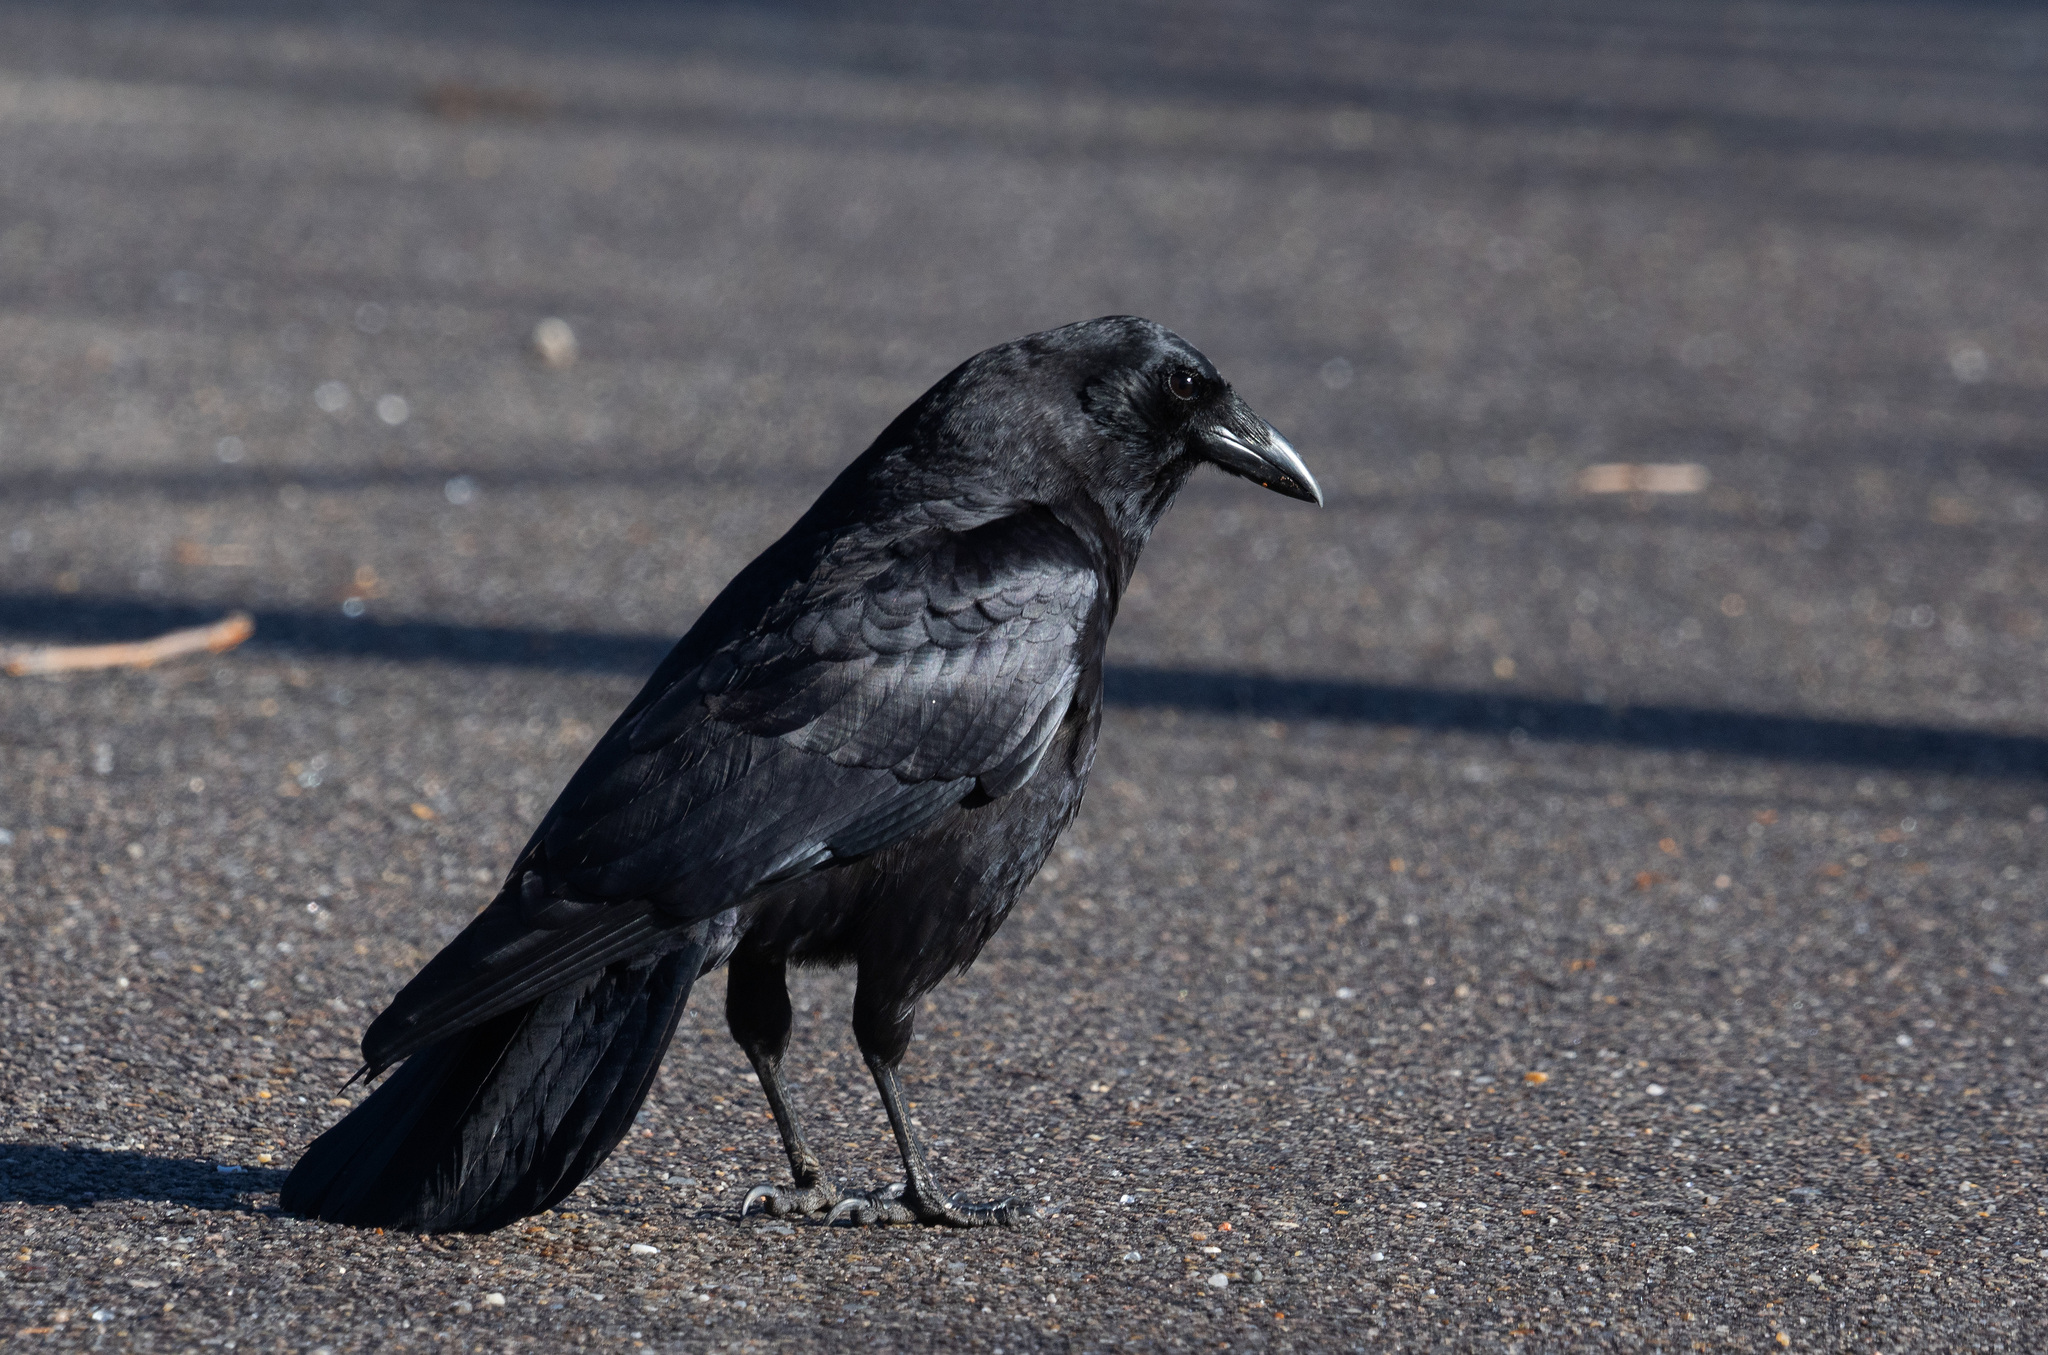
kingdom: Animalia
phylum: Chordata
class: Aves
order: Passeriformes
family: Corvidae
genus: Corvus
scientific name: Corvus brachyrhynchos
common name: American crow
